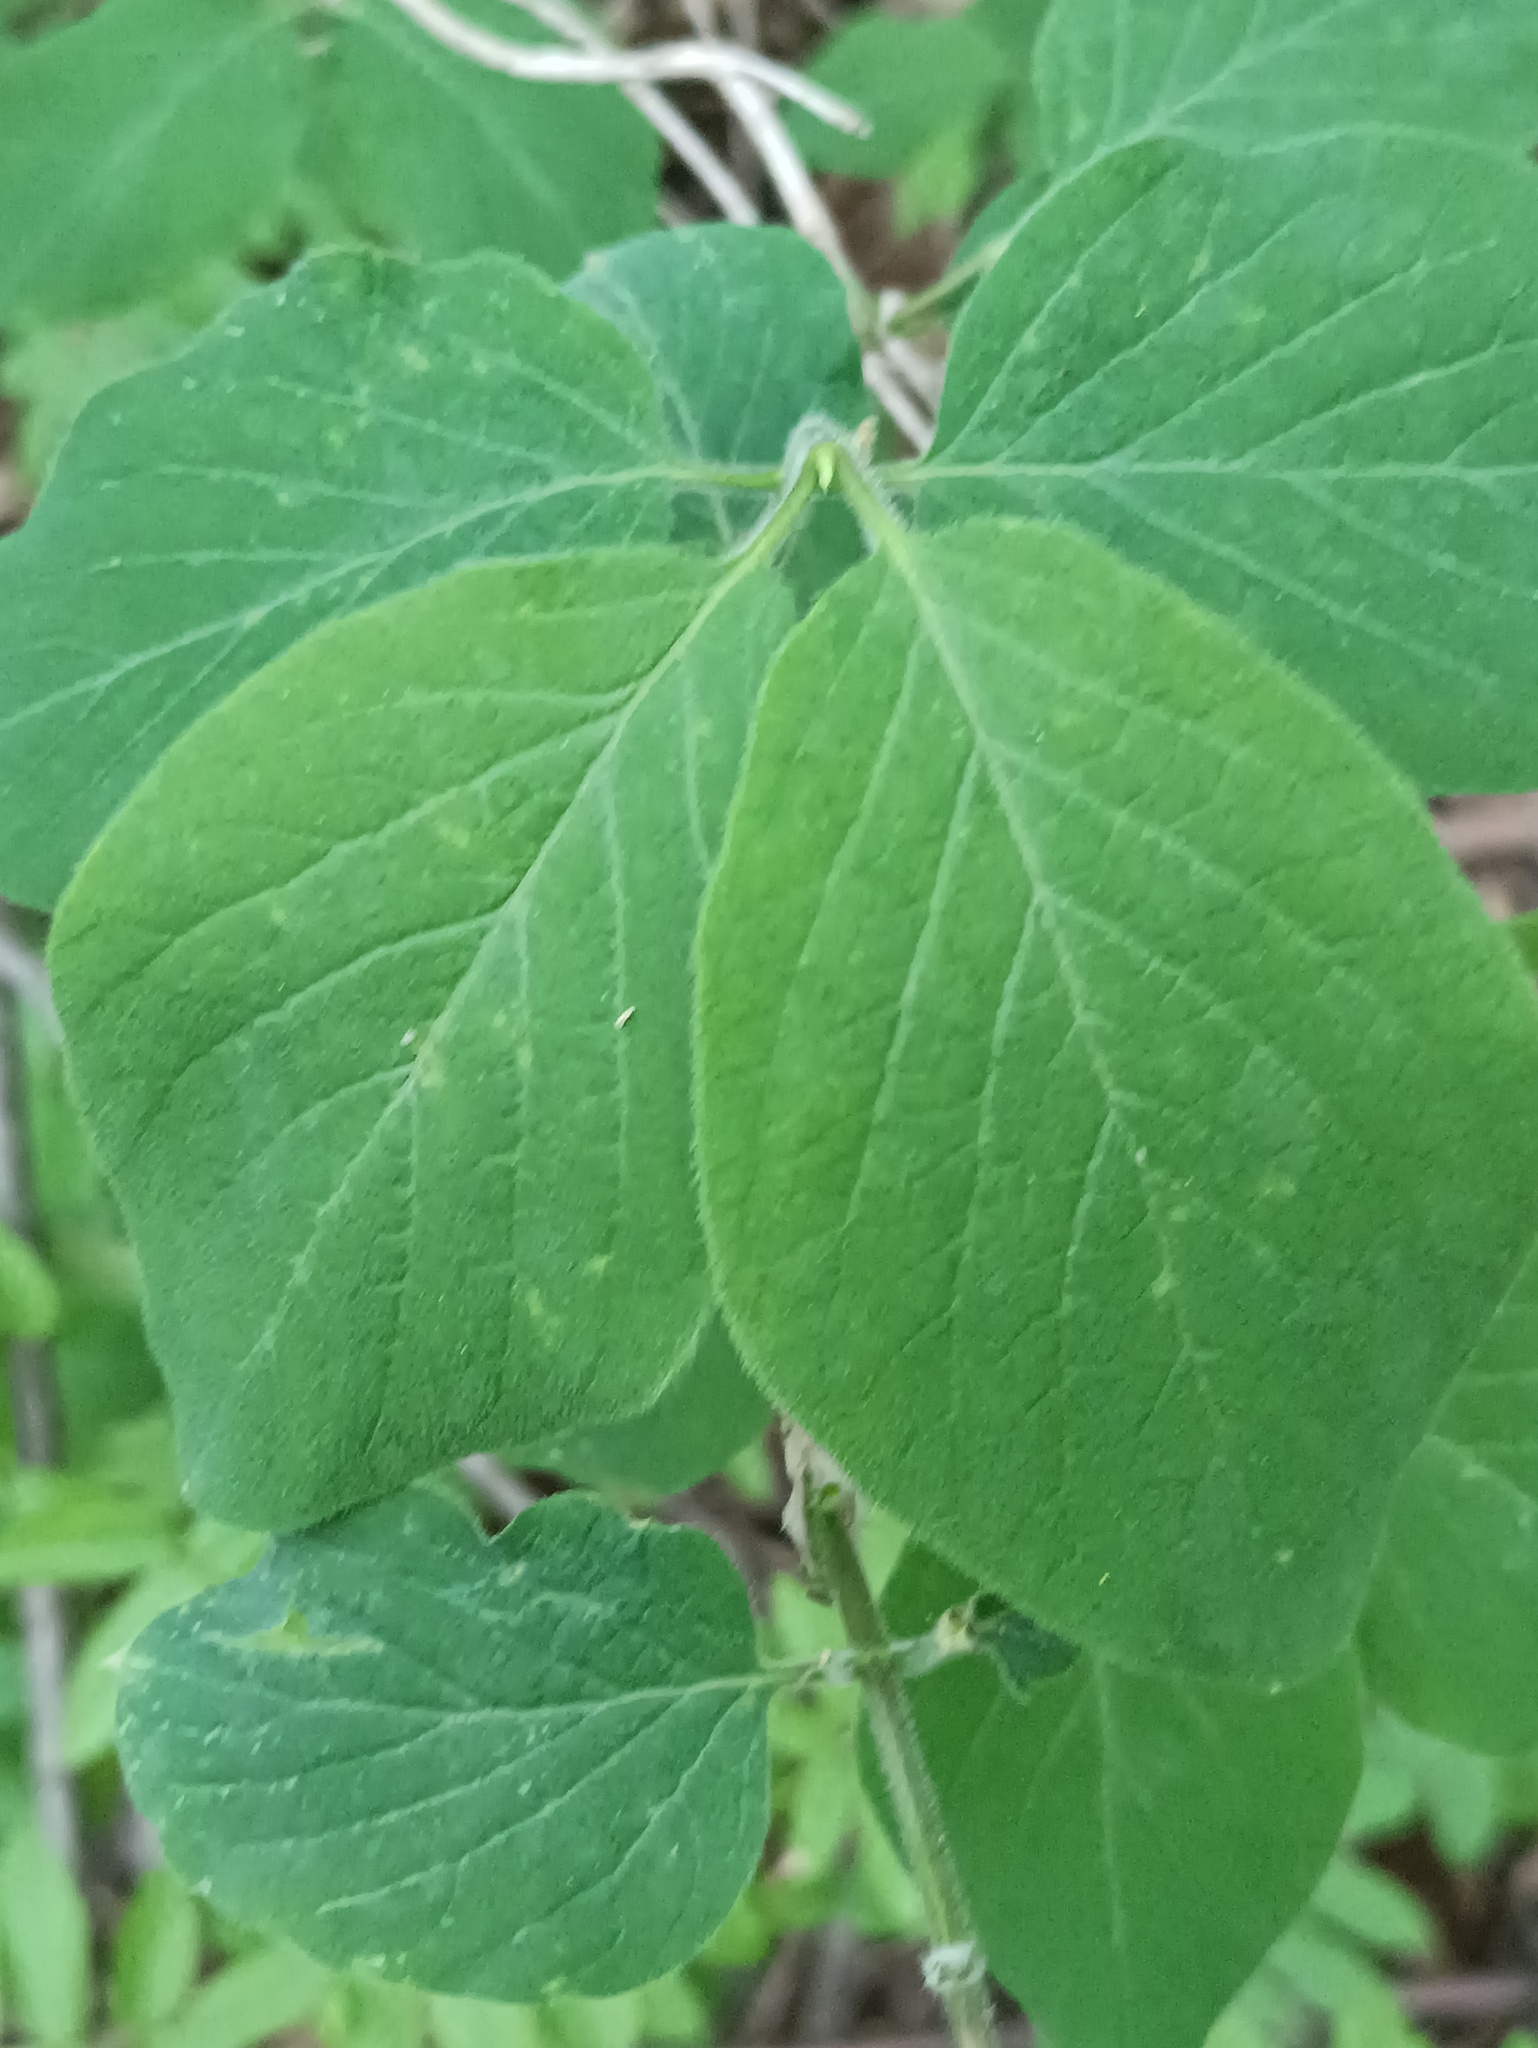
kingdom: Plantae
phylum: Tracheophyta
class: Magnoliopsida
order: Dipsacales
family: Caprifoliaceae
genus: Lonicera
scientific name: Lonicera xylosteum
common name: Fly honeysuckle
